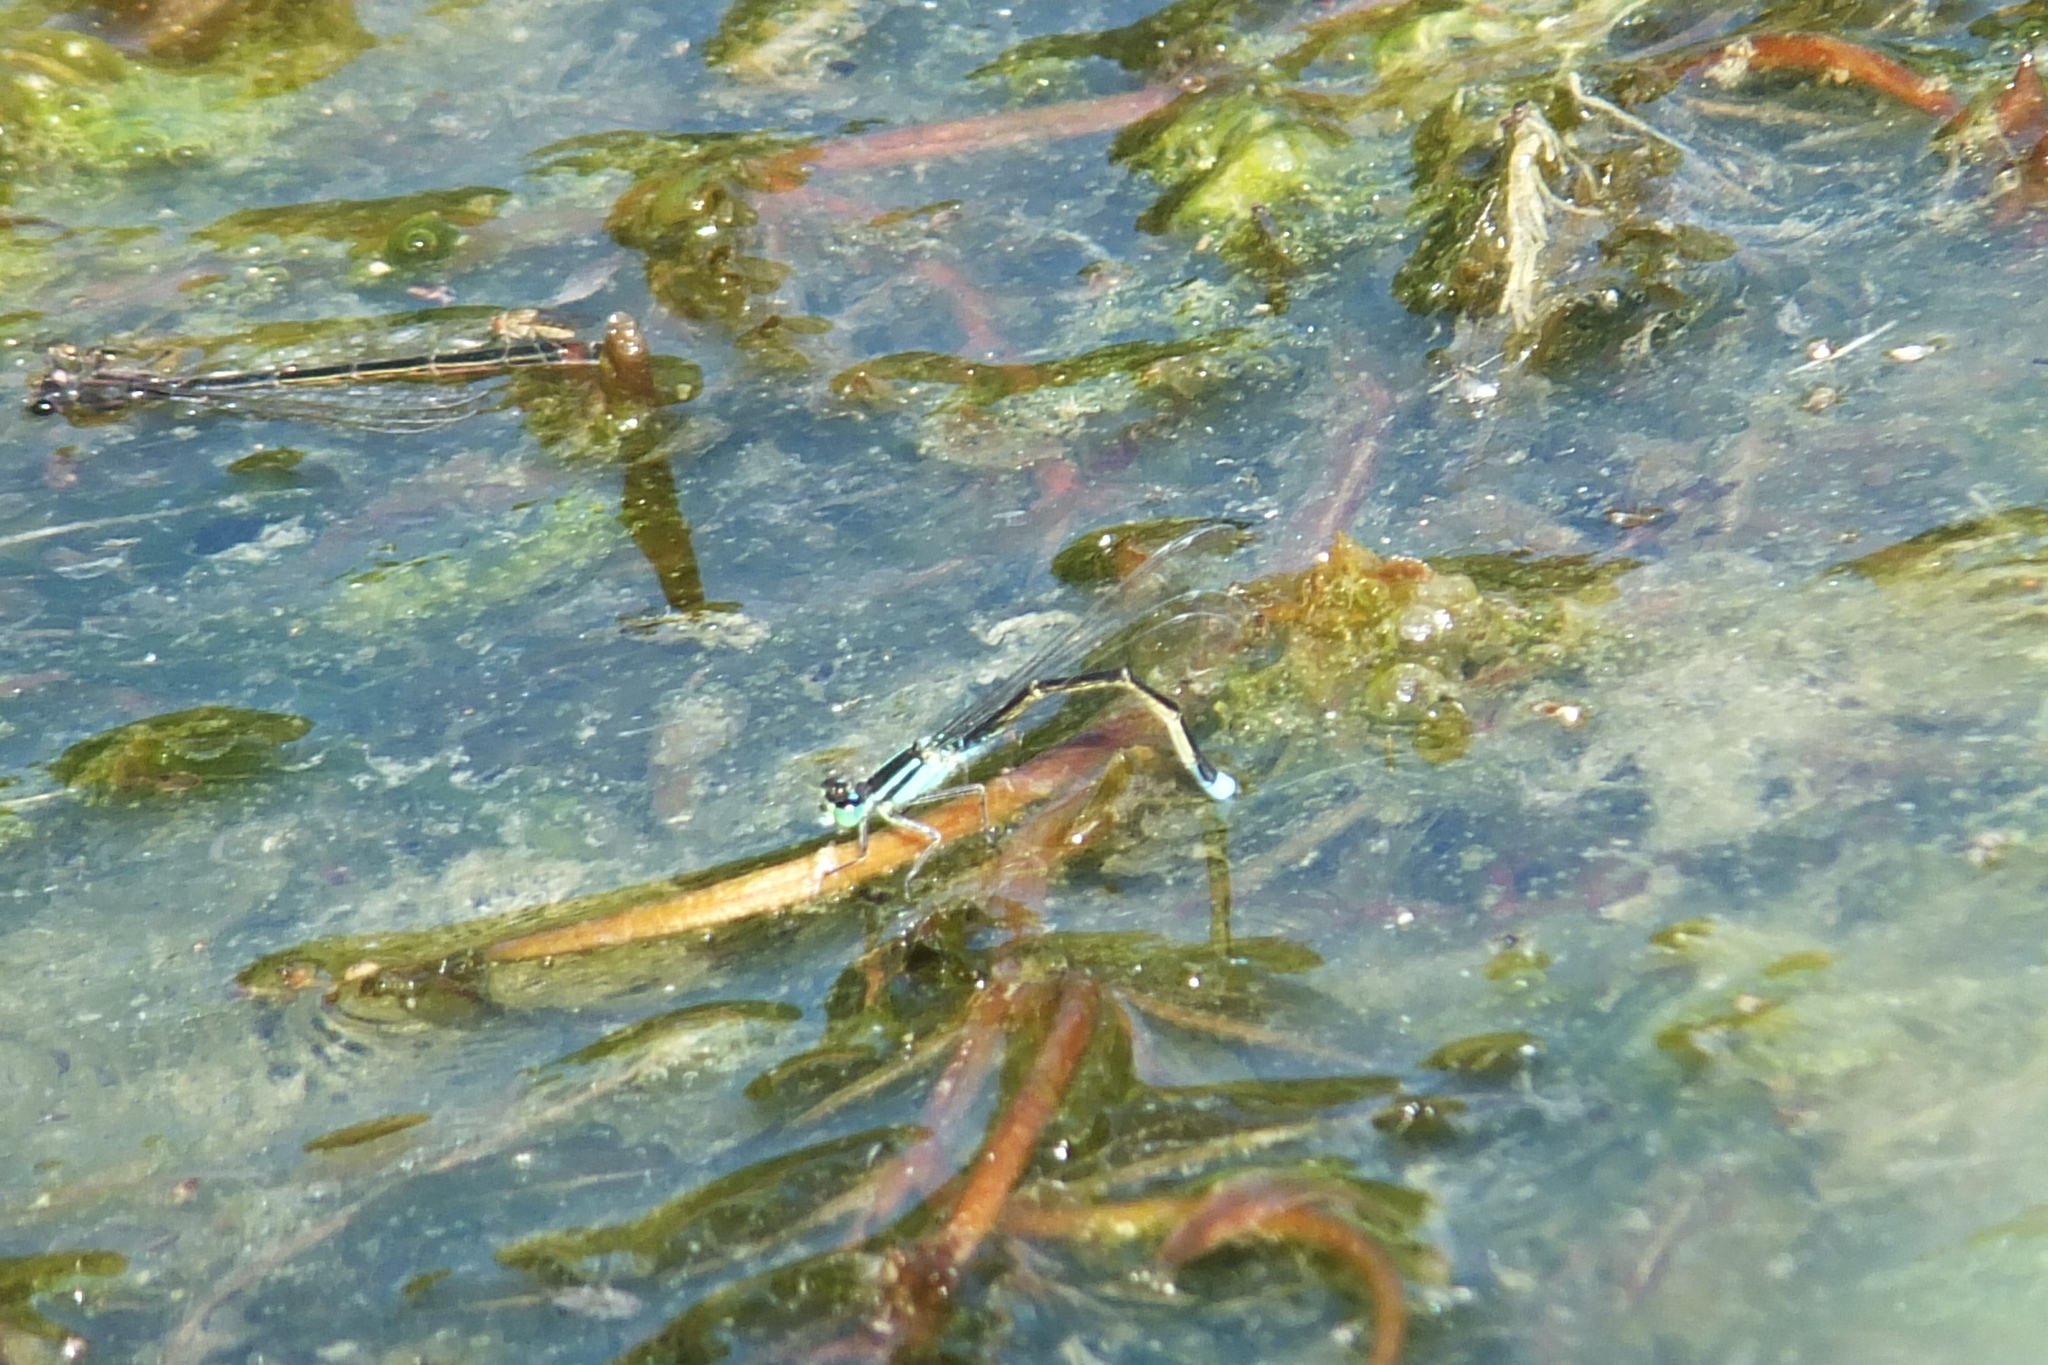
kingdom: Animalia
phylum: Arthropoda
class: Insecta
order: Odonata
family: Coenagrionidae
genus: Ischnura
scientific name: Ischnura elegans
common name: Blue-tailed damselfly
